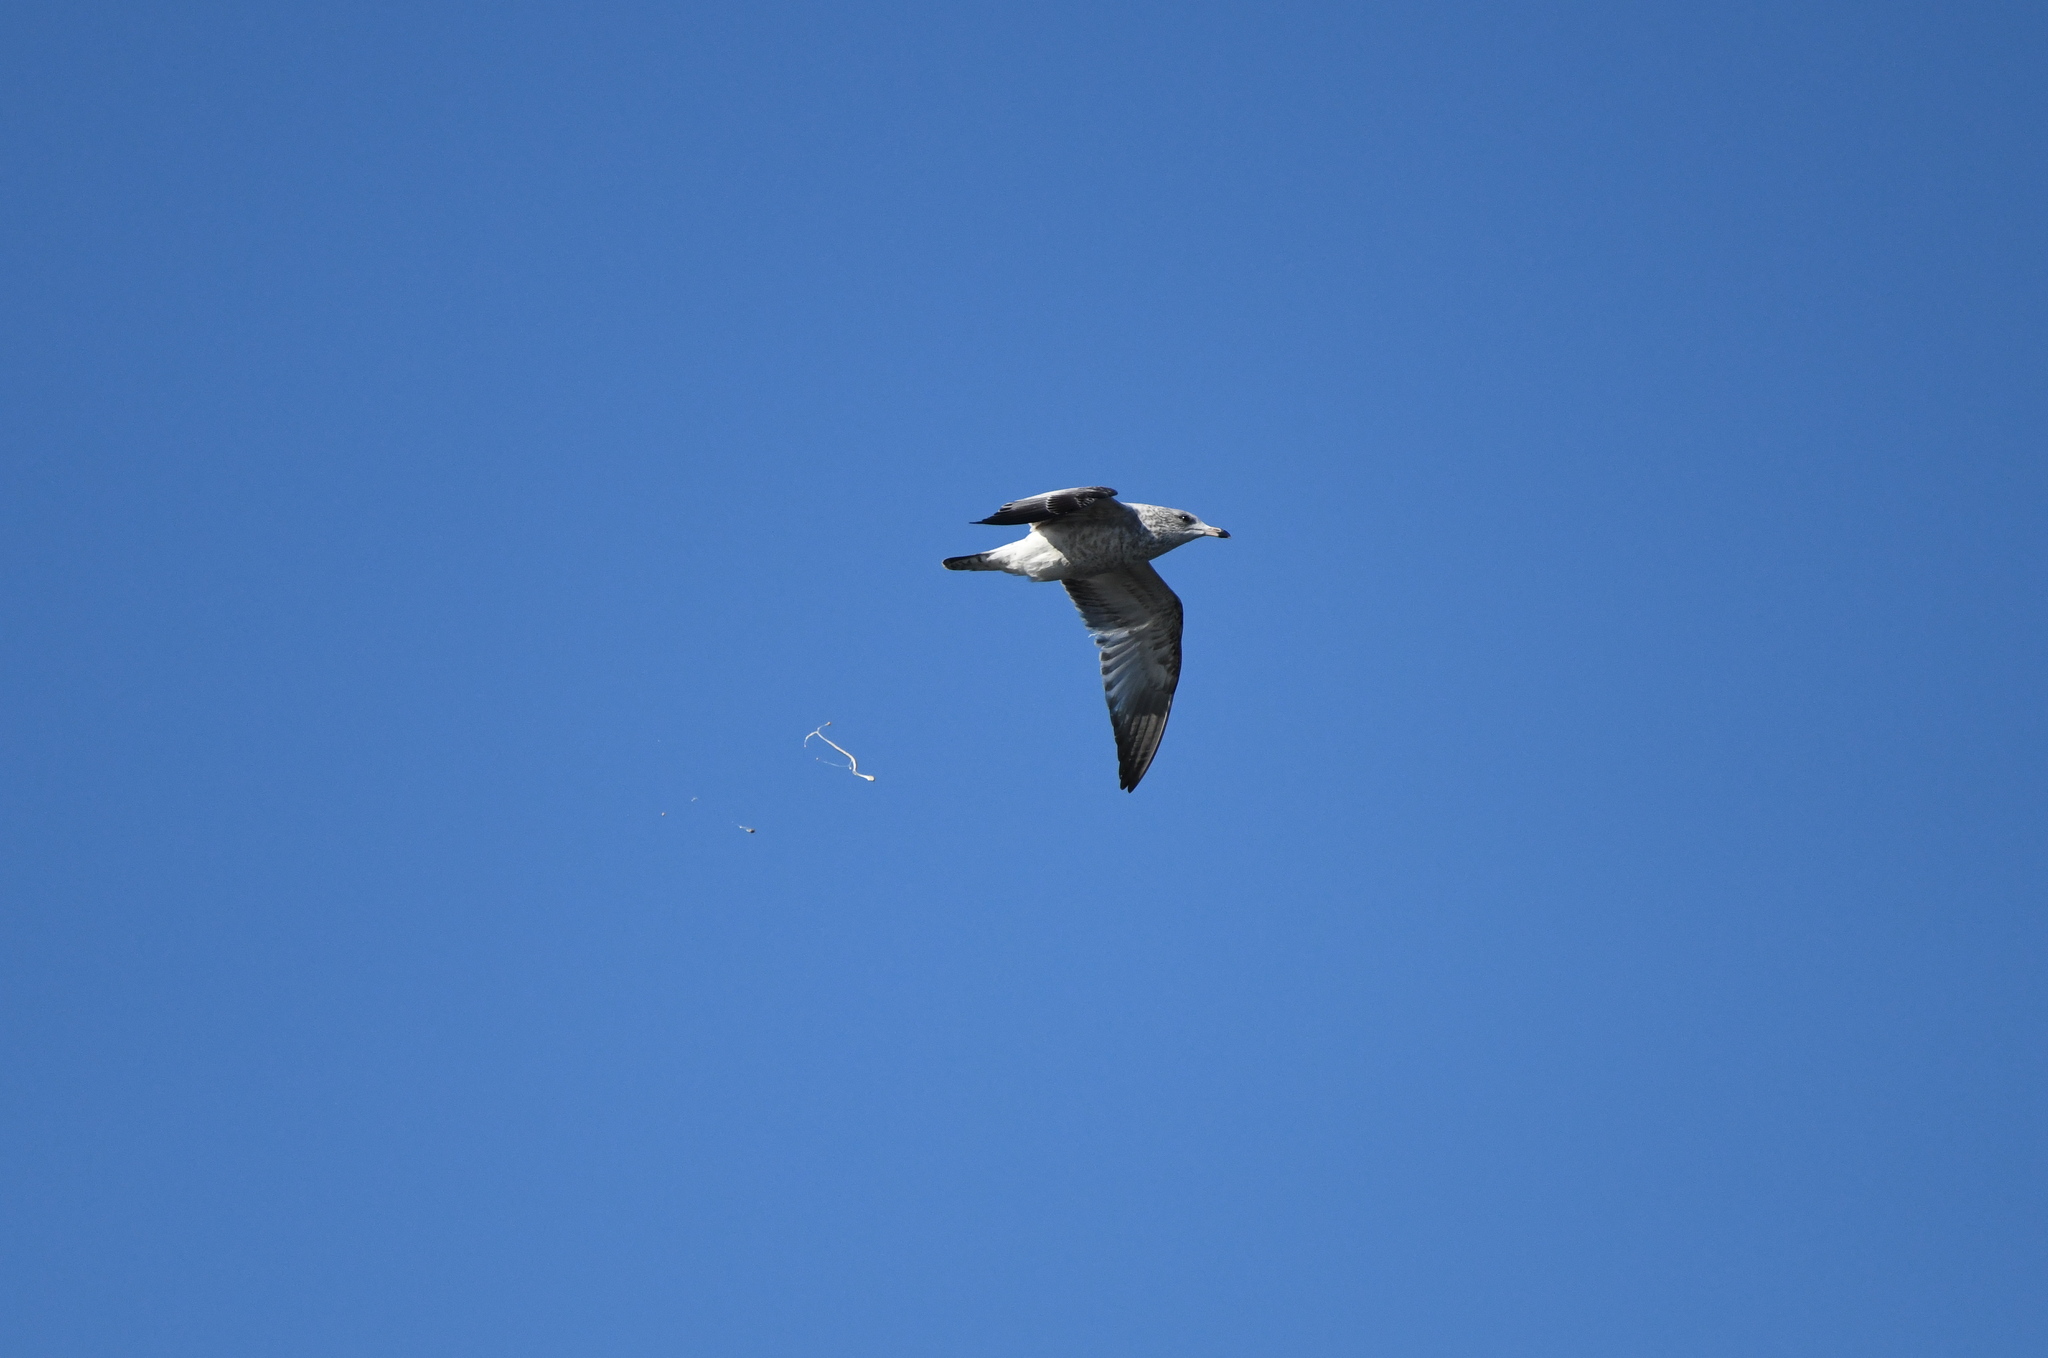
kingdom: Animalia
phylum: Chordata
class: Aves
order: Charadriiformes
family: Laridae
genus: Larus
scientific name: Larus delawarensis
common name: Ring-billed gull
